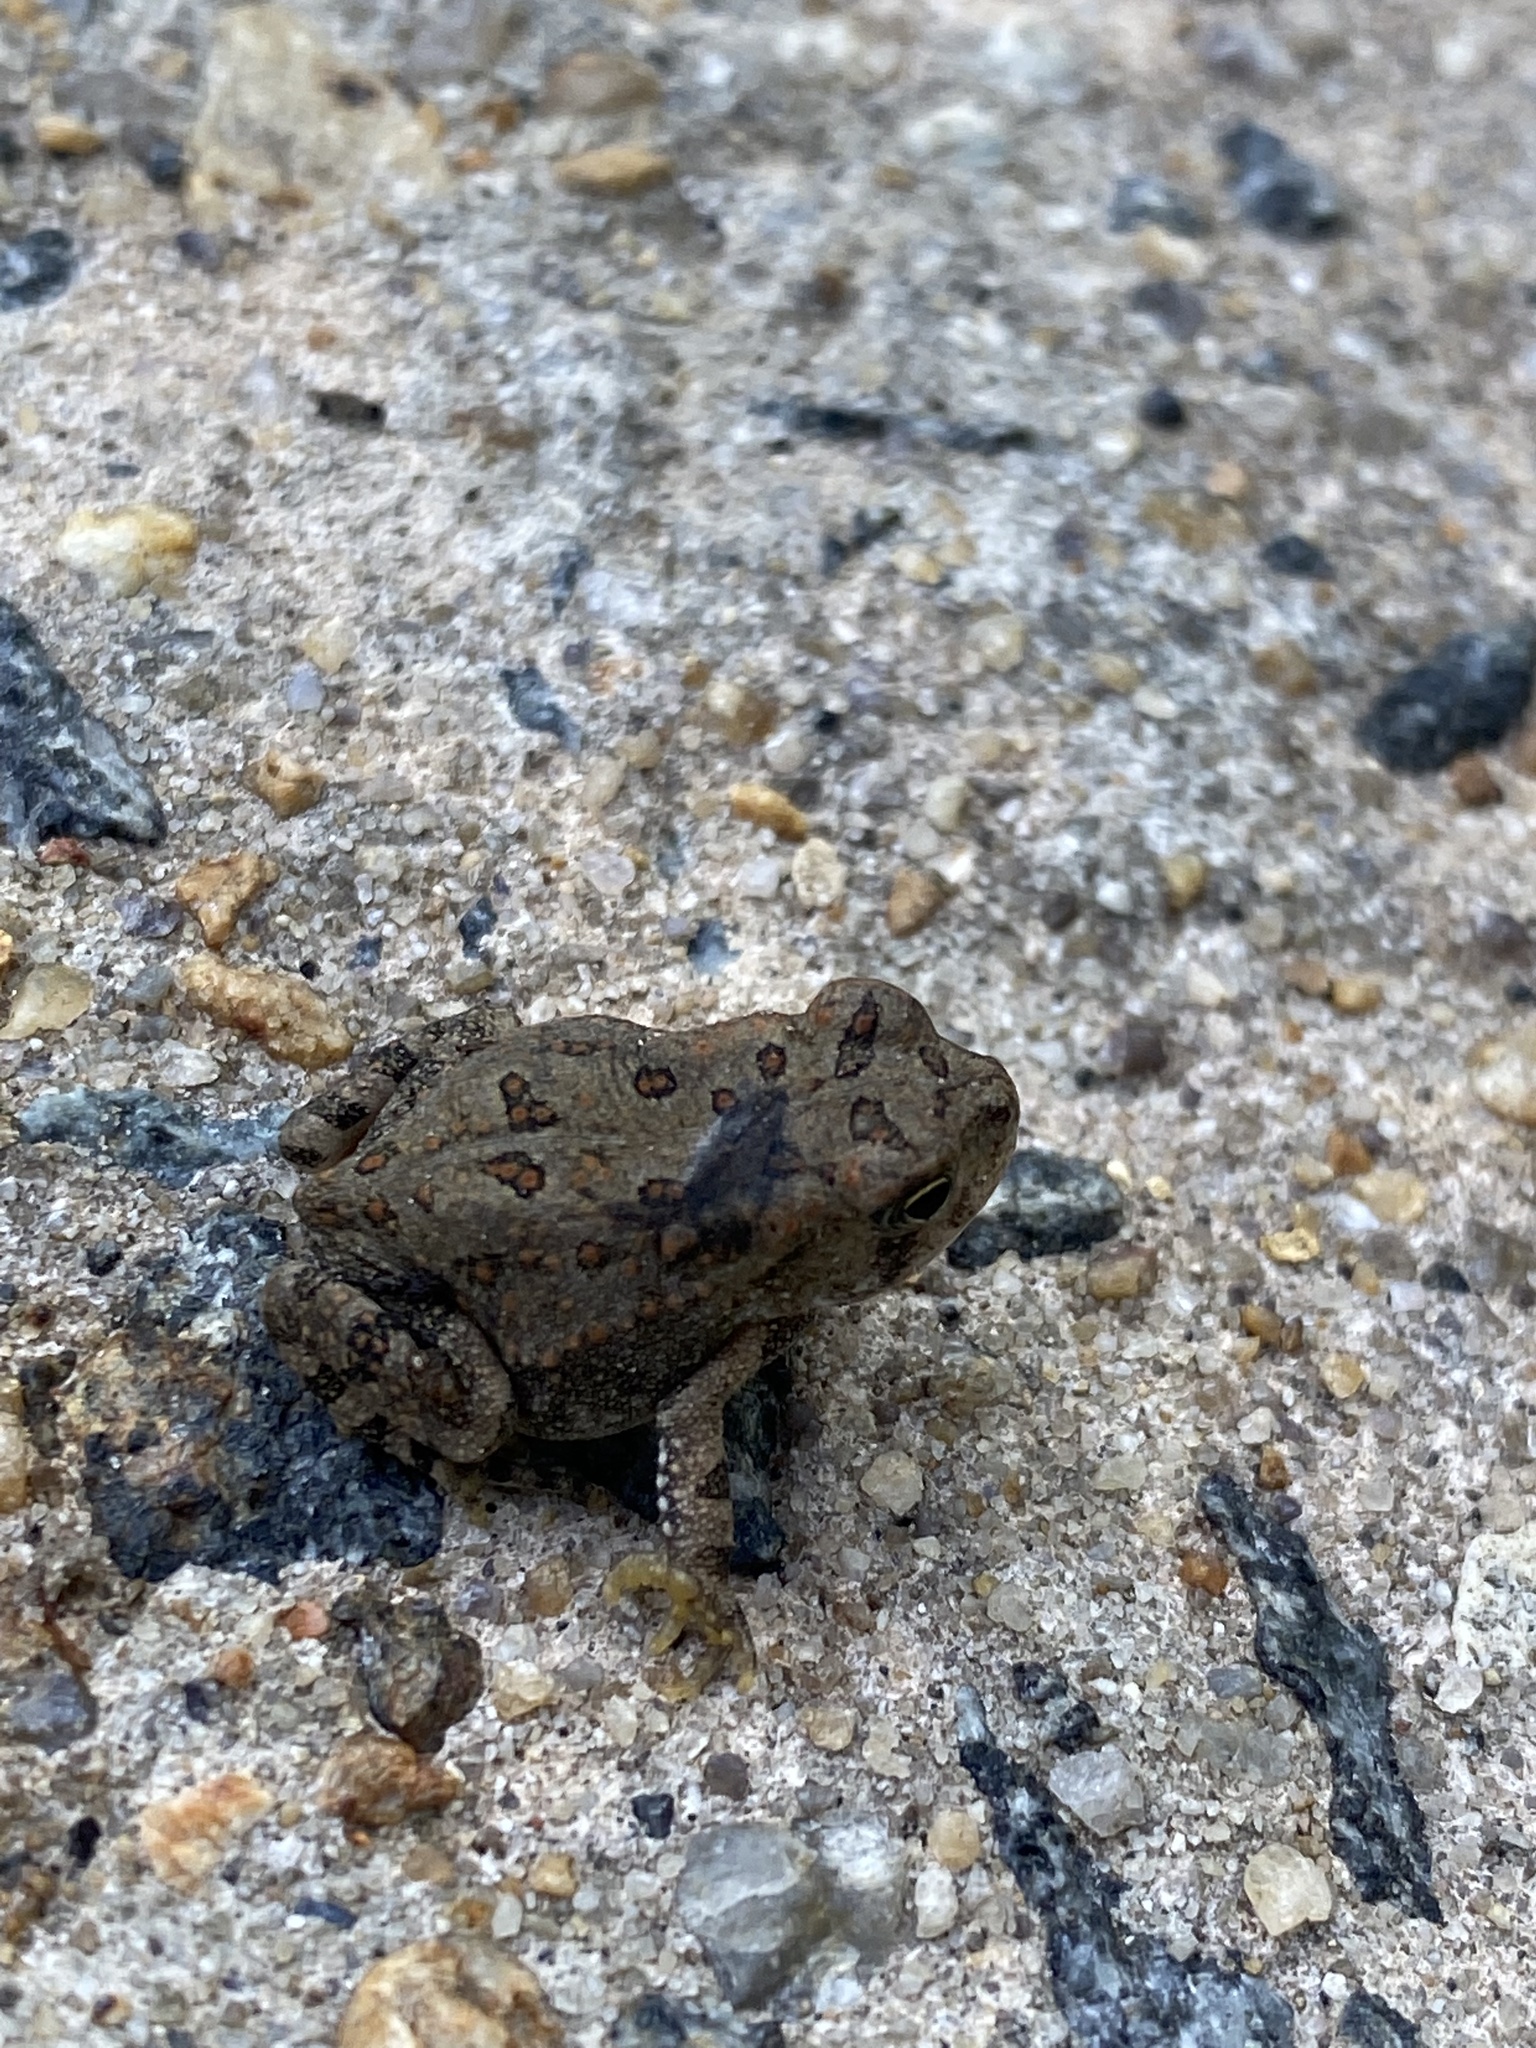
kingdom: Animalia
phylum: Chordata
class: Amphibia
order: Anura
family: Bufonidae
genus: Anaxyrus
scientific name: Anaxyrus fowleri
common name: Fowler's toad
